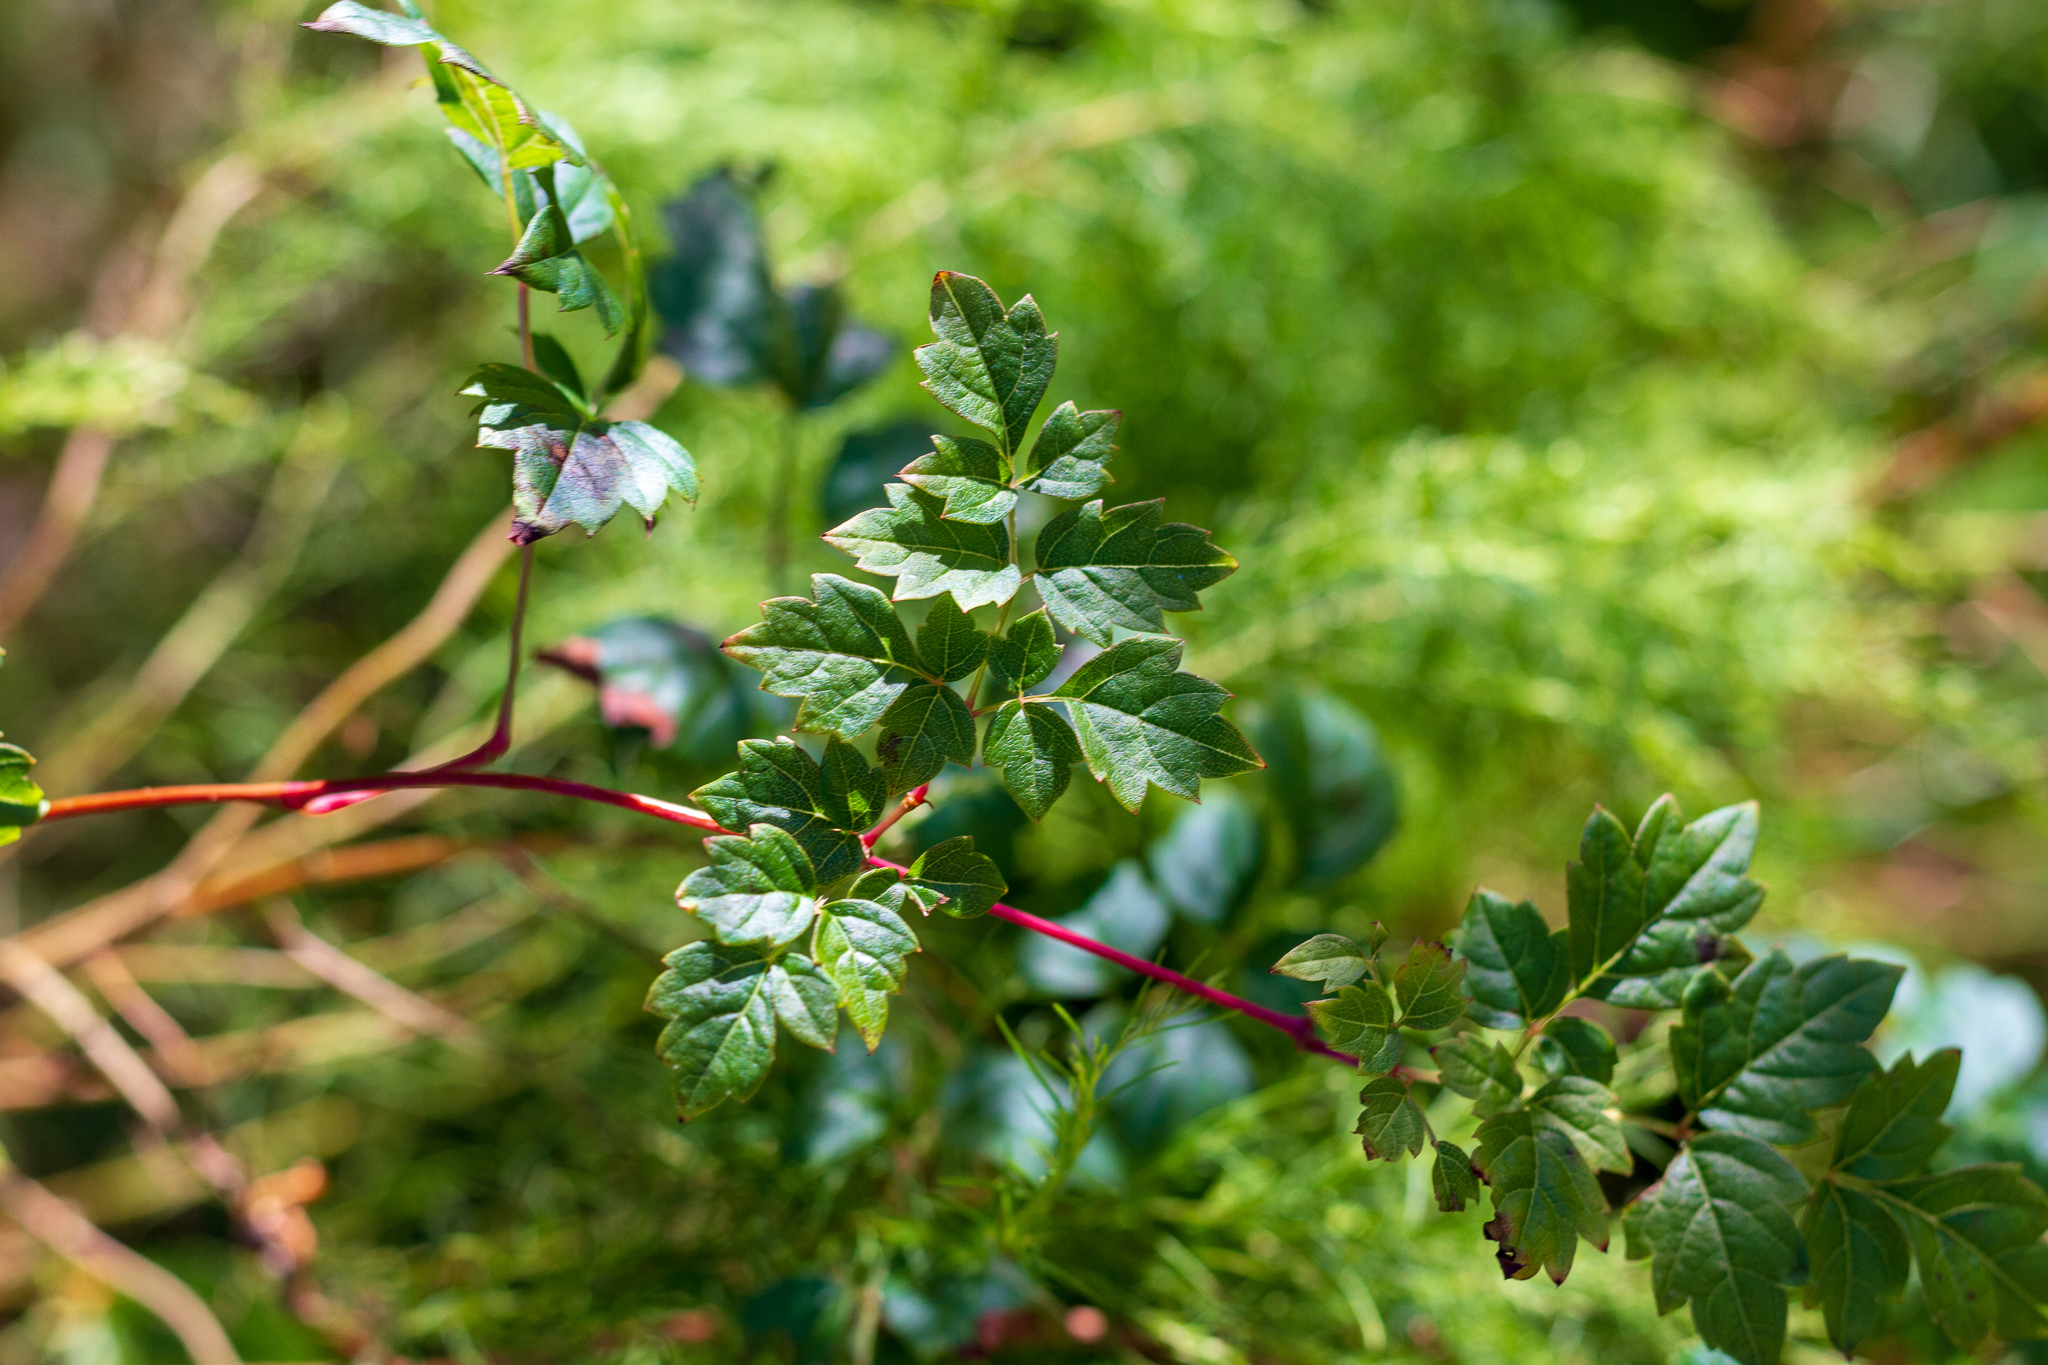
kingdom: Plantae
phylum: Tracheophyta
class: Magnoliopsida
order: Vitales
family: Vitaceae
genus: Nekemias
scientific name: Nekemias arborea
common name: Peppervine
